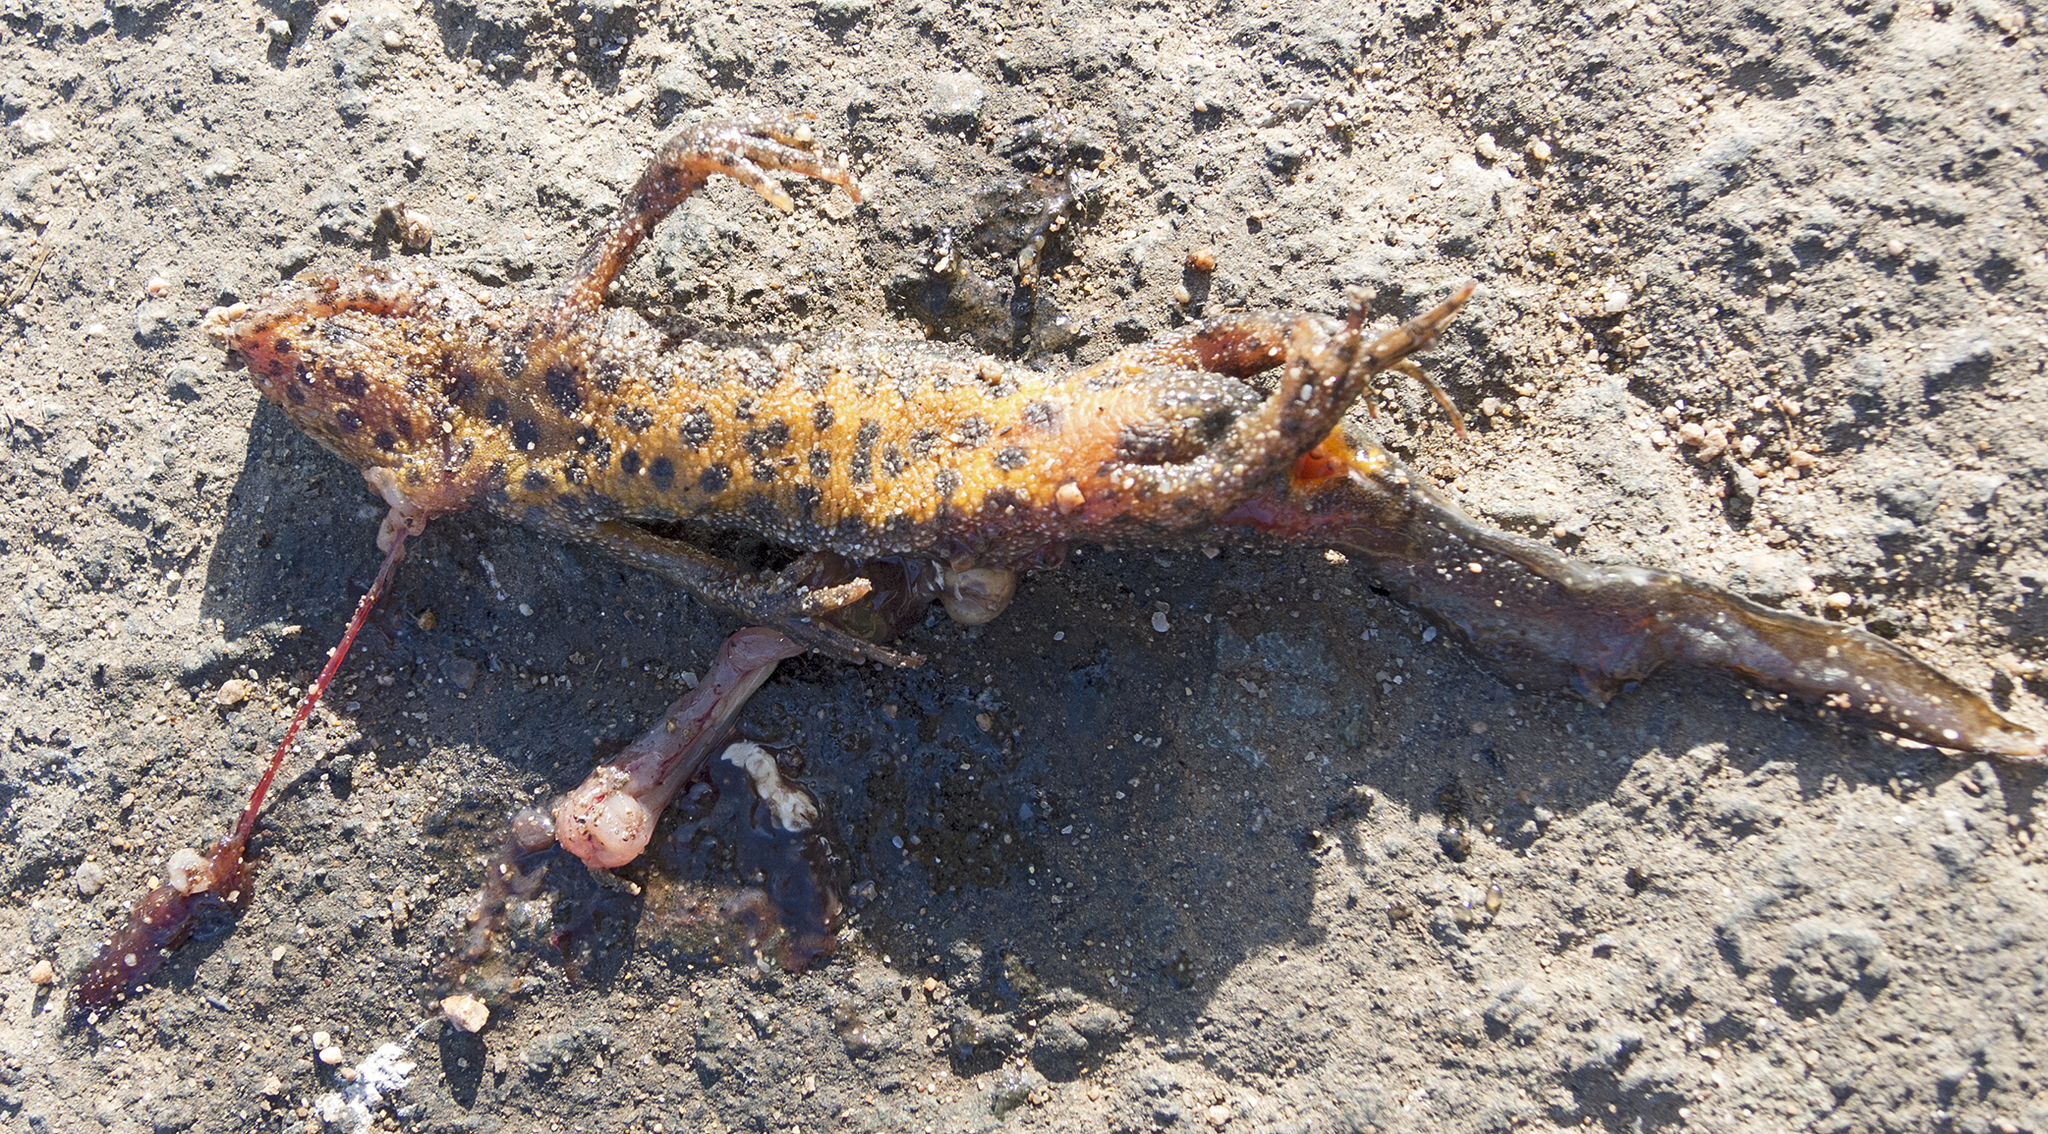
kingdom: Animalia
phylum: Chordata
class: Amphibia
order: Caudata
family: Salamandridae
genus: Triturus
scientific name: Triturus ivanbureschi
